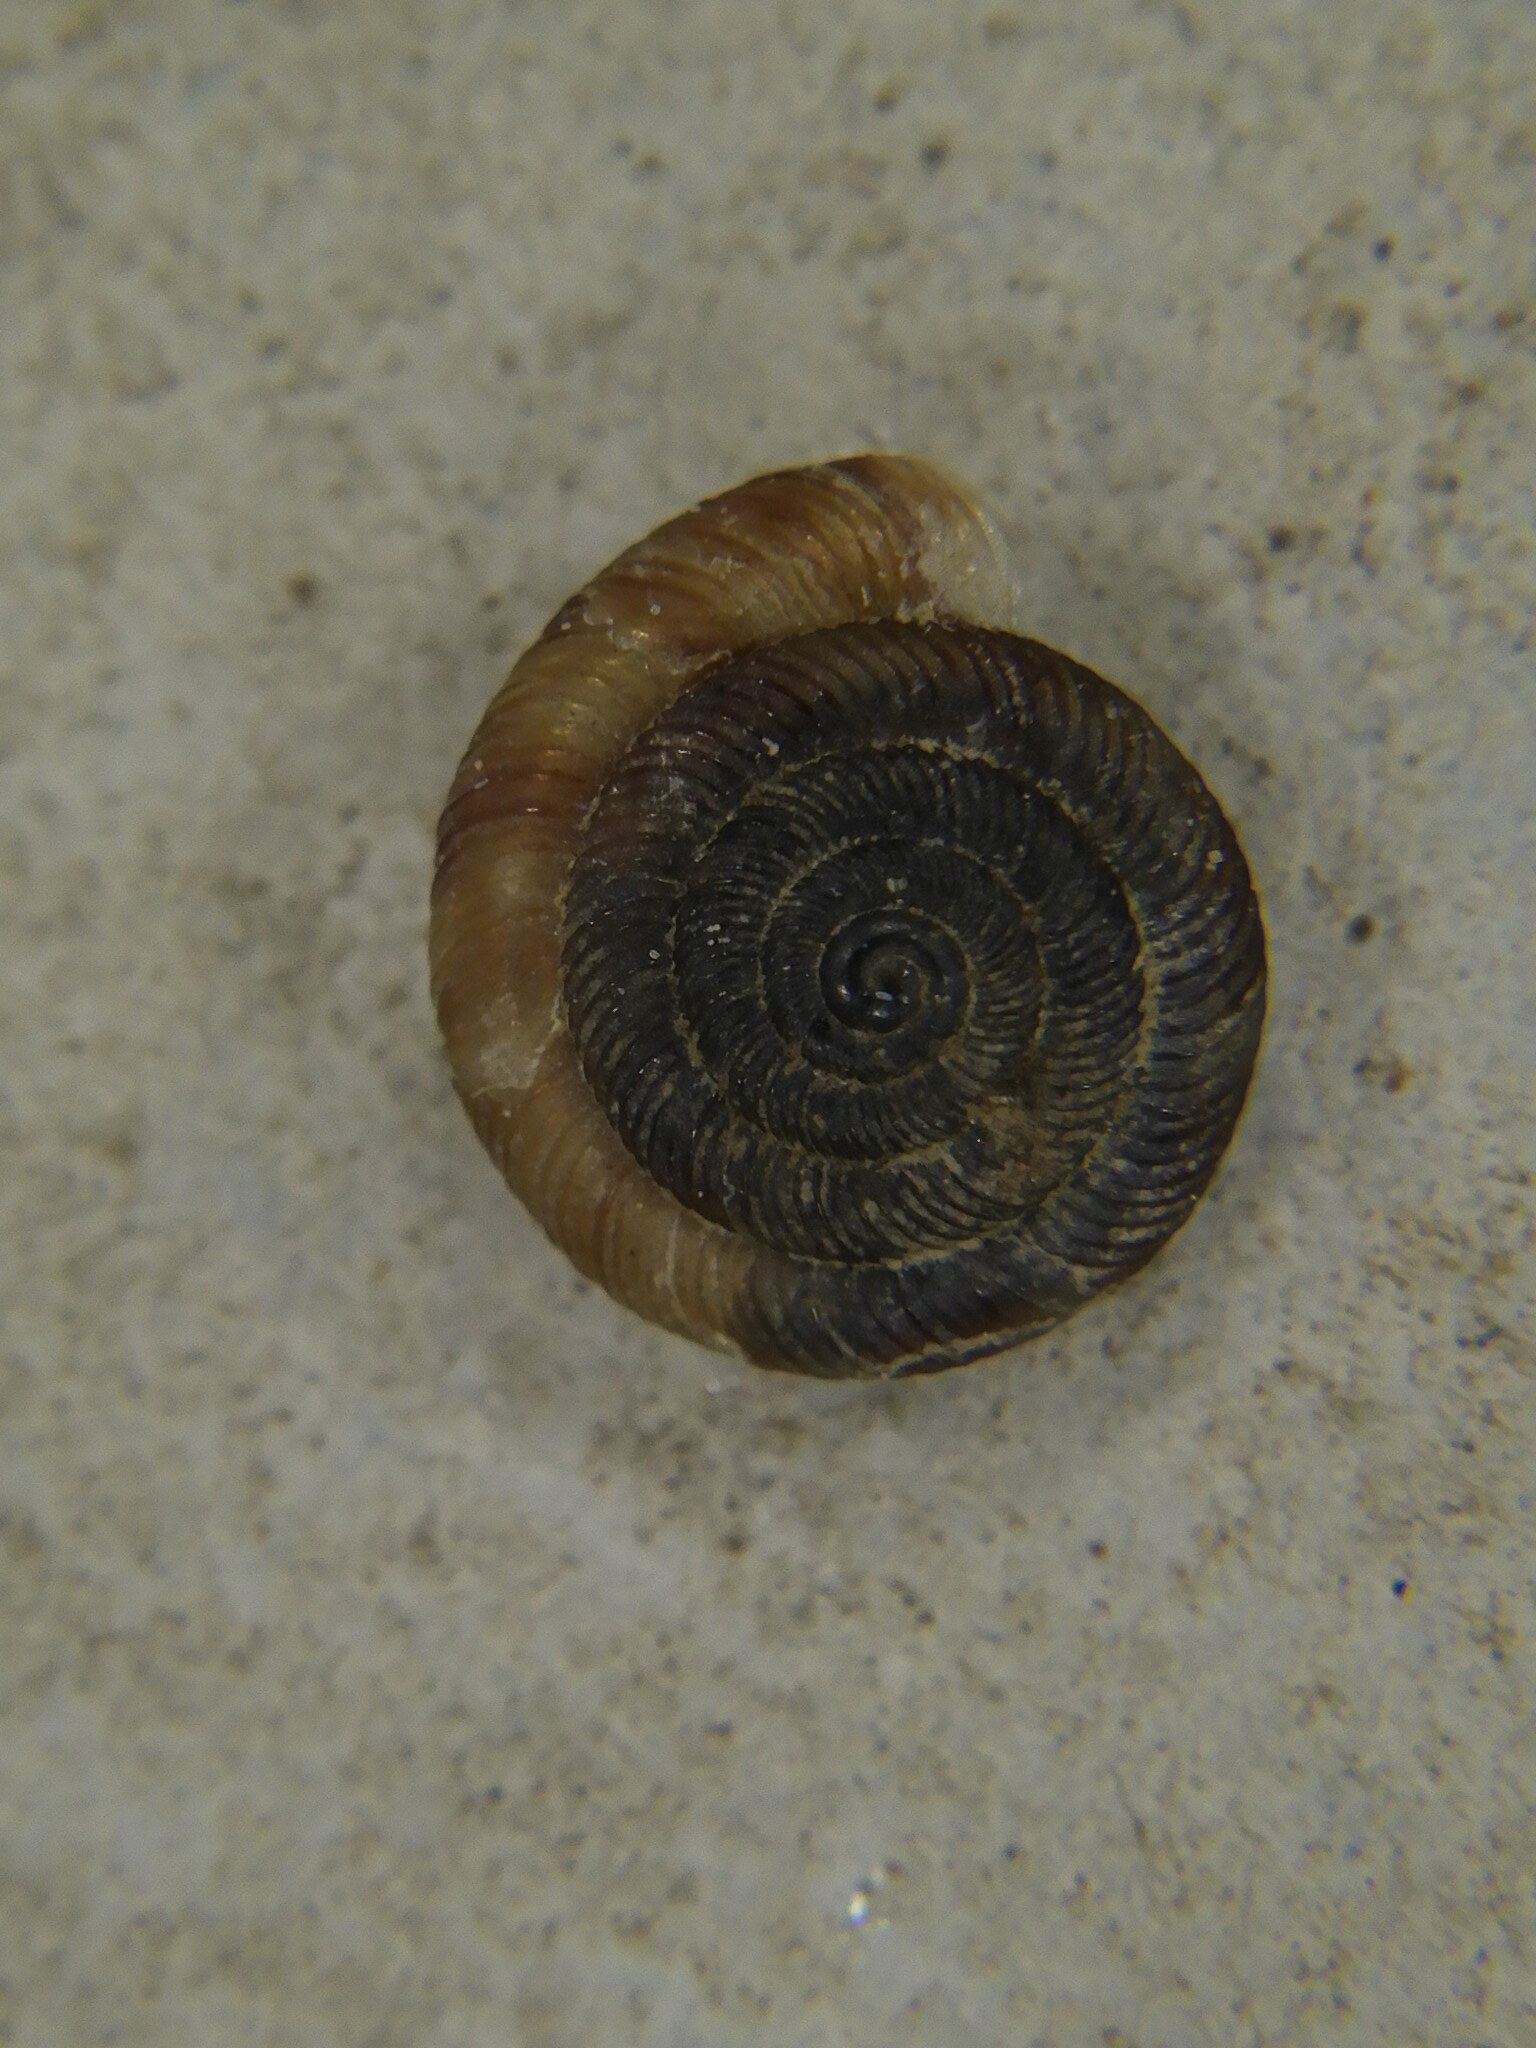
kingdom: Animalia
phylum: Mollusca
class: Gastropoda
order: Stylommatophora
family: Discidae
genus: Discus
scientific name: Discus rotundatus
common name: Rounded snail
